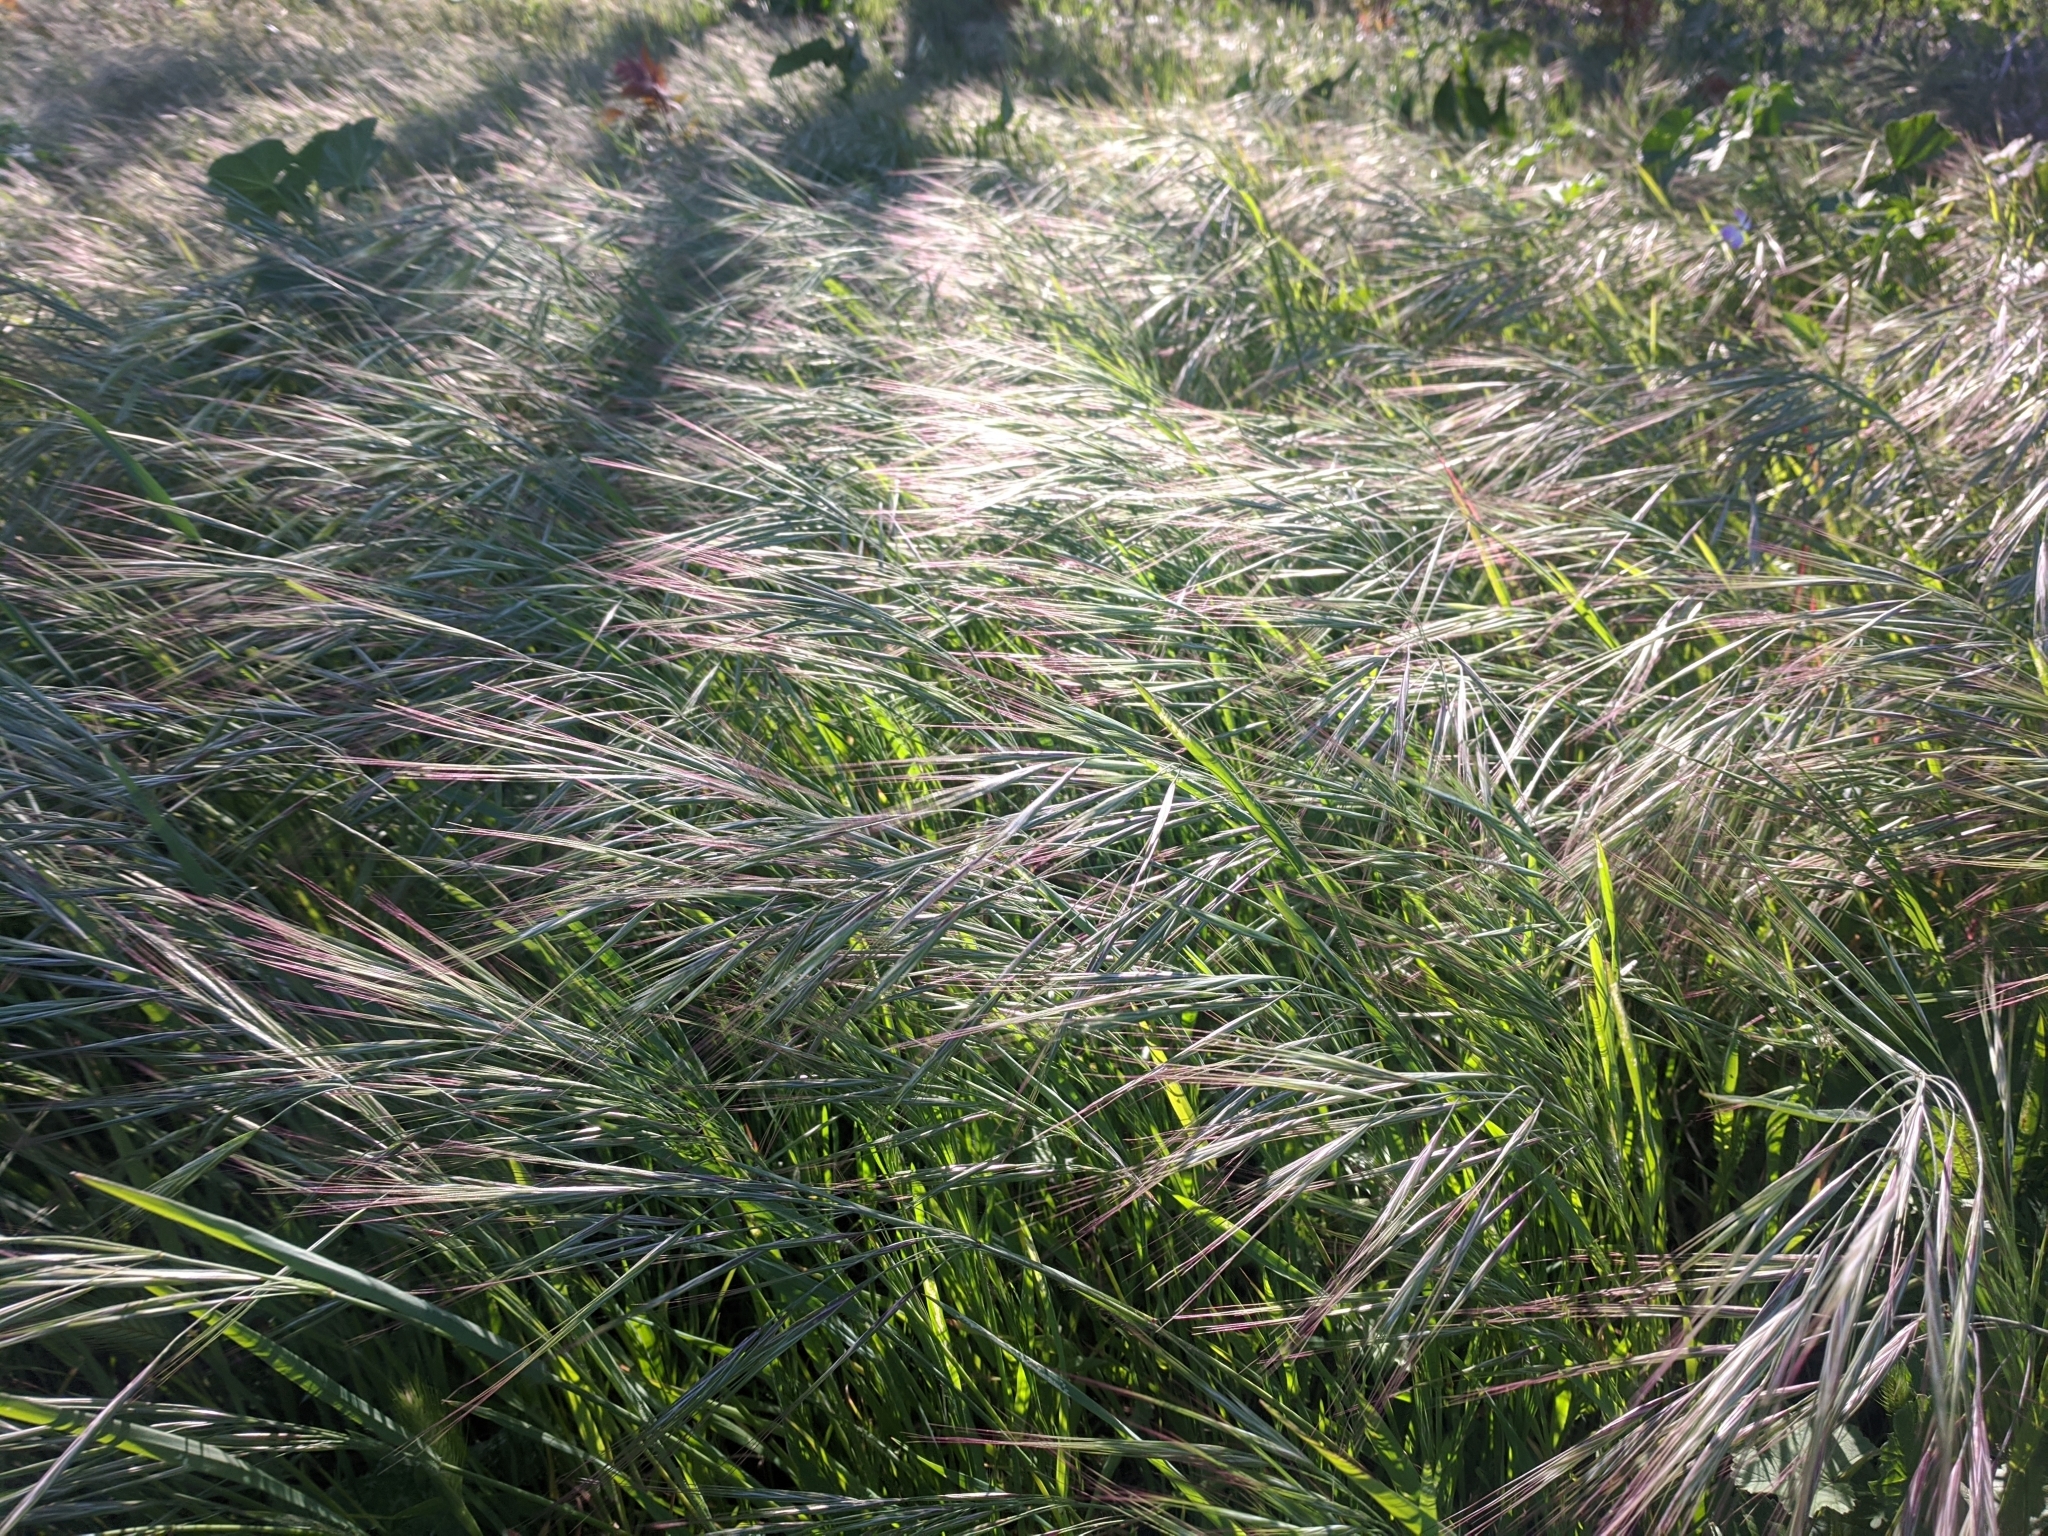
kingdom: Plantae
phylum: Tracheophyta
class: Liliopsida
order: Poales
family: Poaceae
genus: Bromus
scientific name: Bromus diandrus
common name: Ripgut brome
